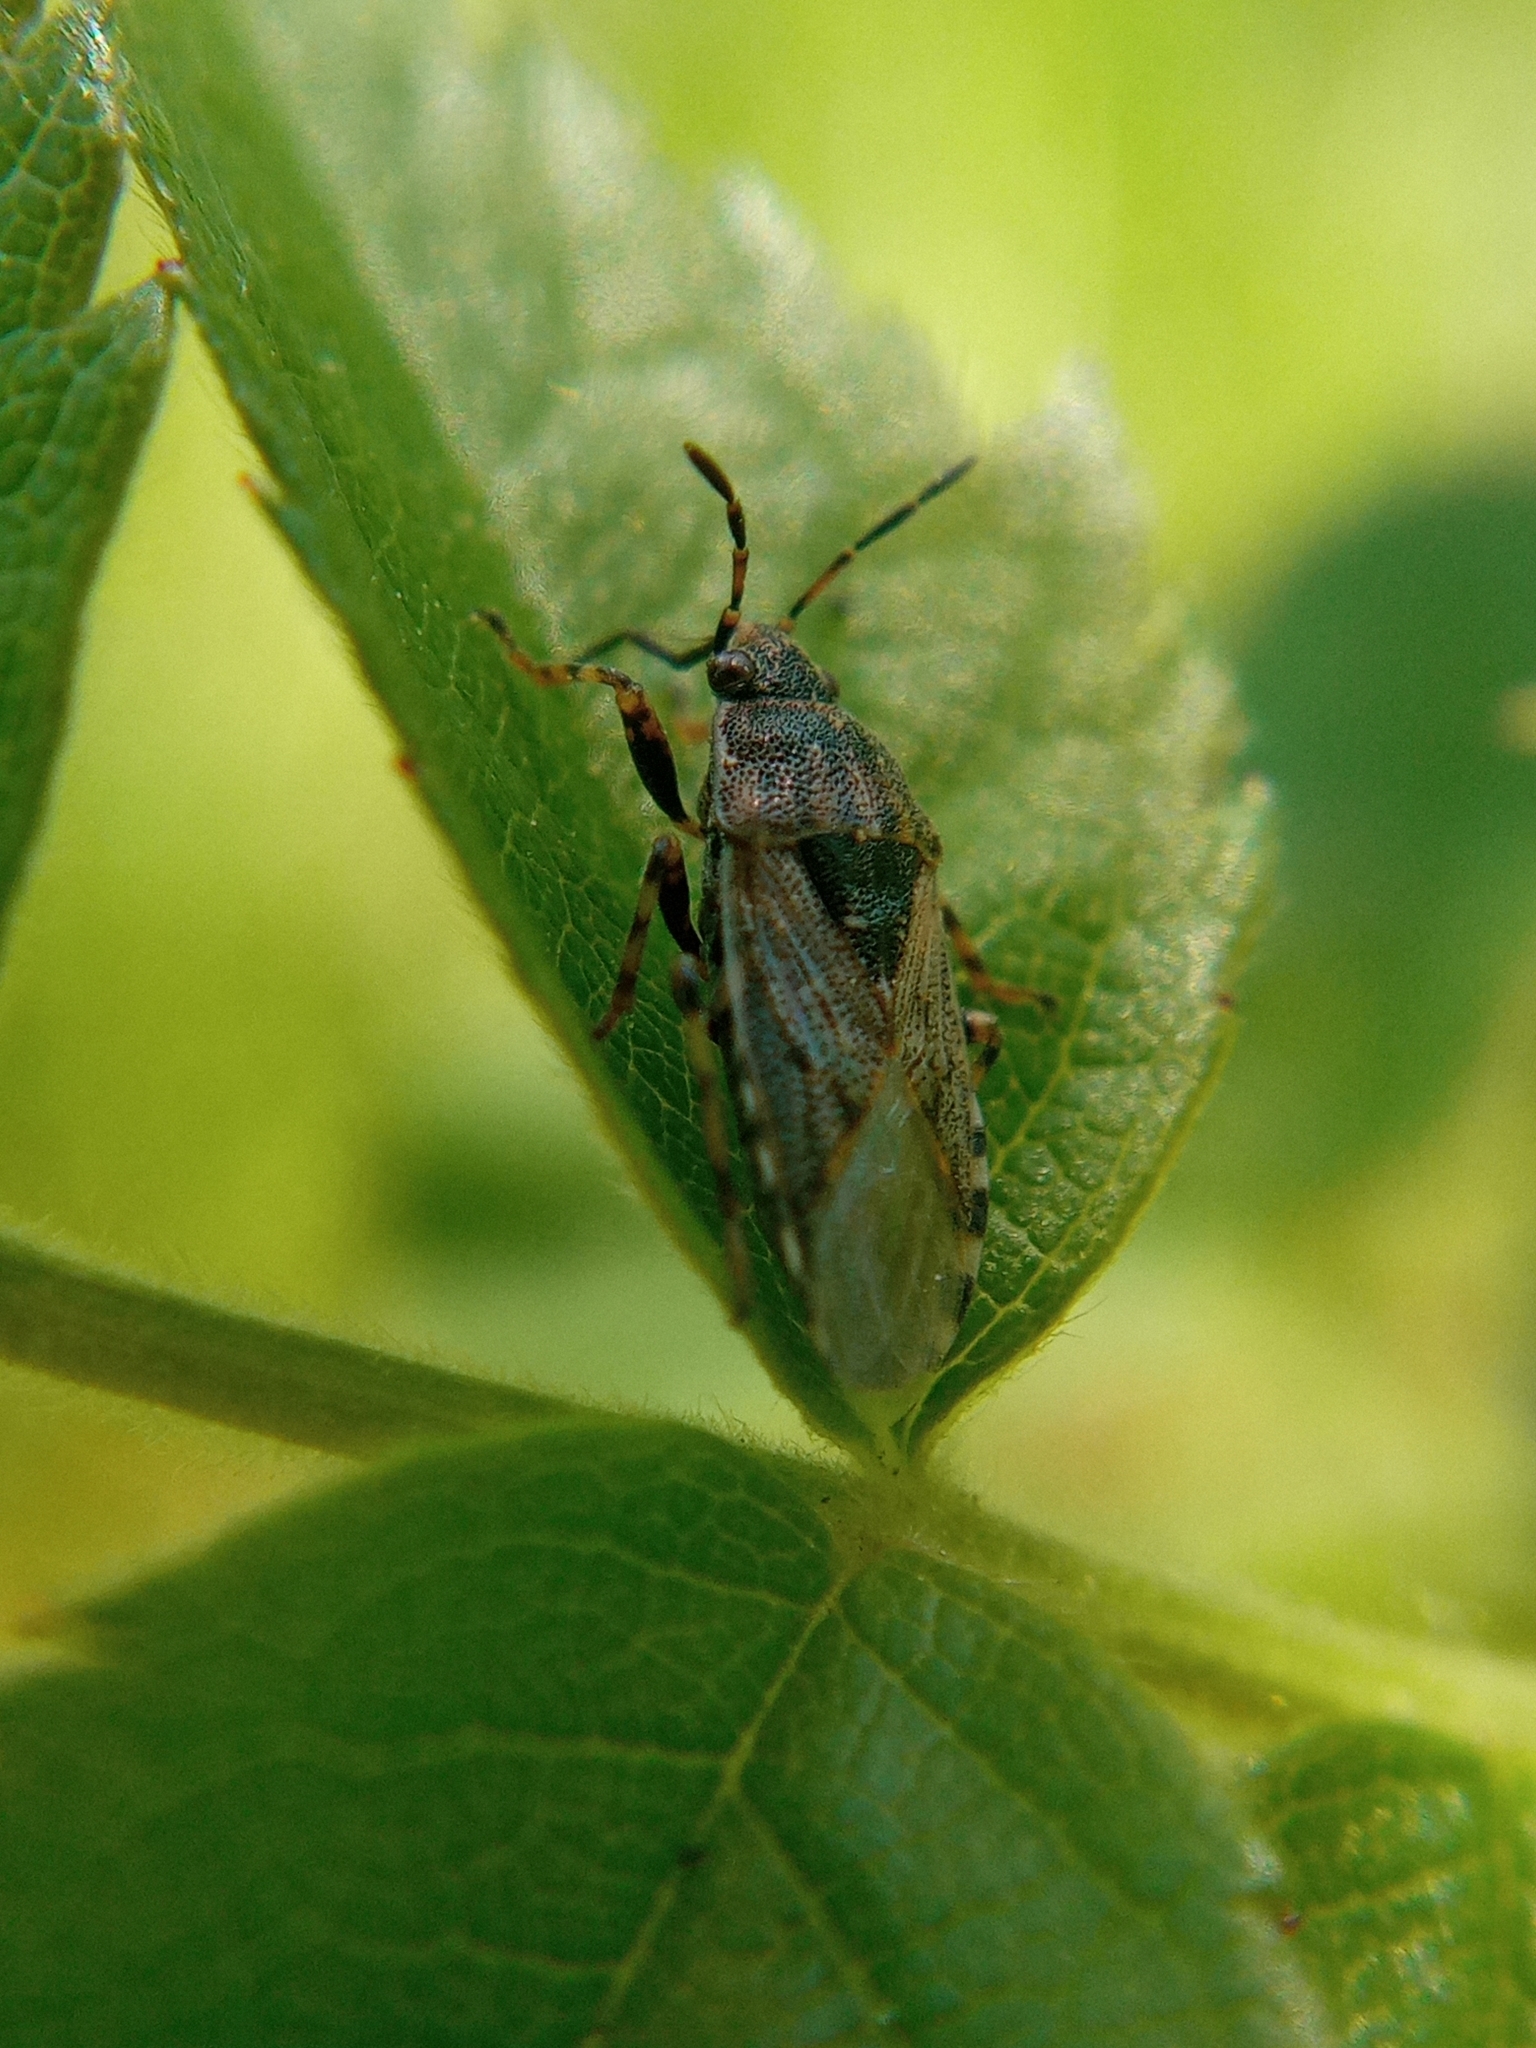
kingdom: Animalia
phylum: Arthropoda
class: Insecta
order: Hemiptera
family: Heterogastridae
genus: Platyplax
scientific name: Platyplax salviae
